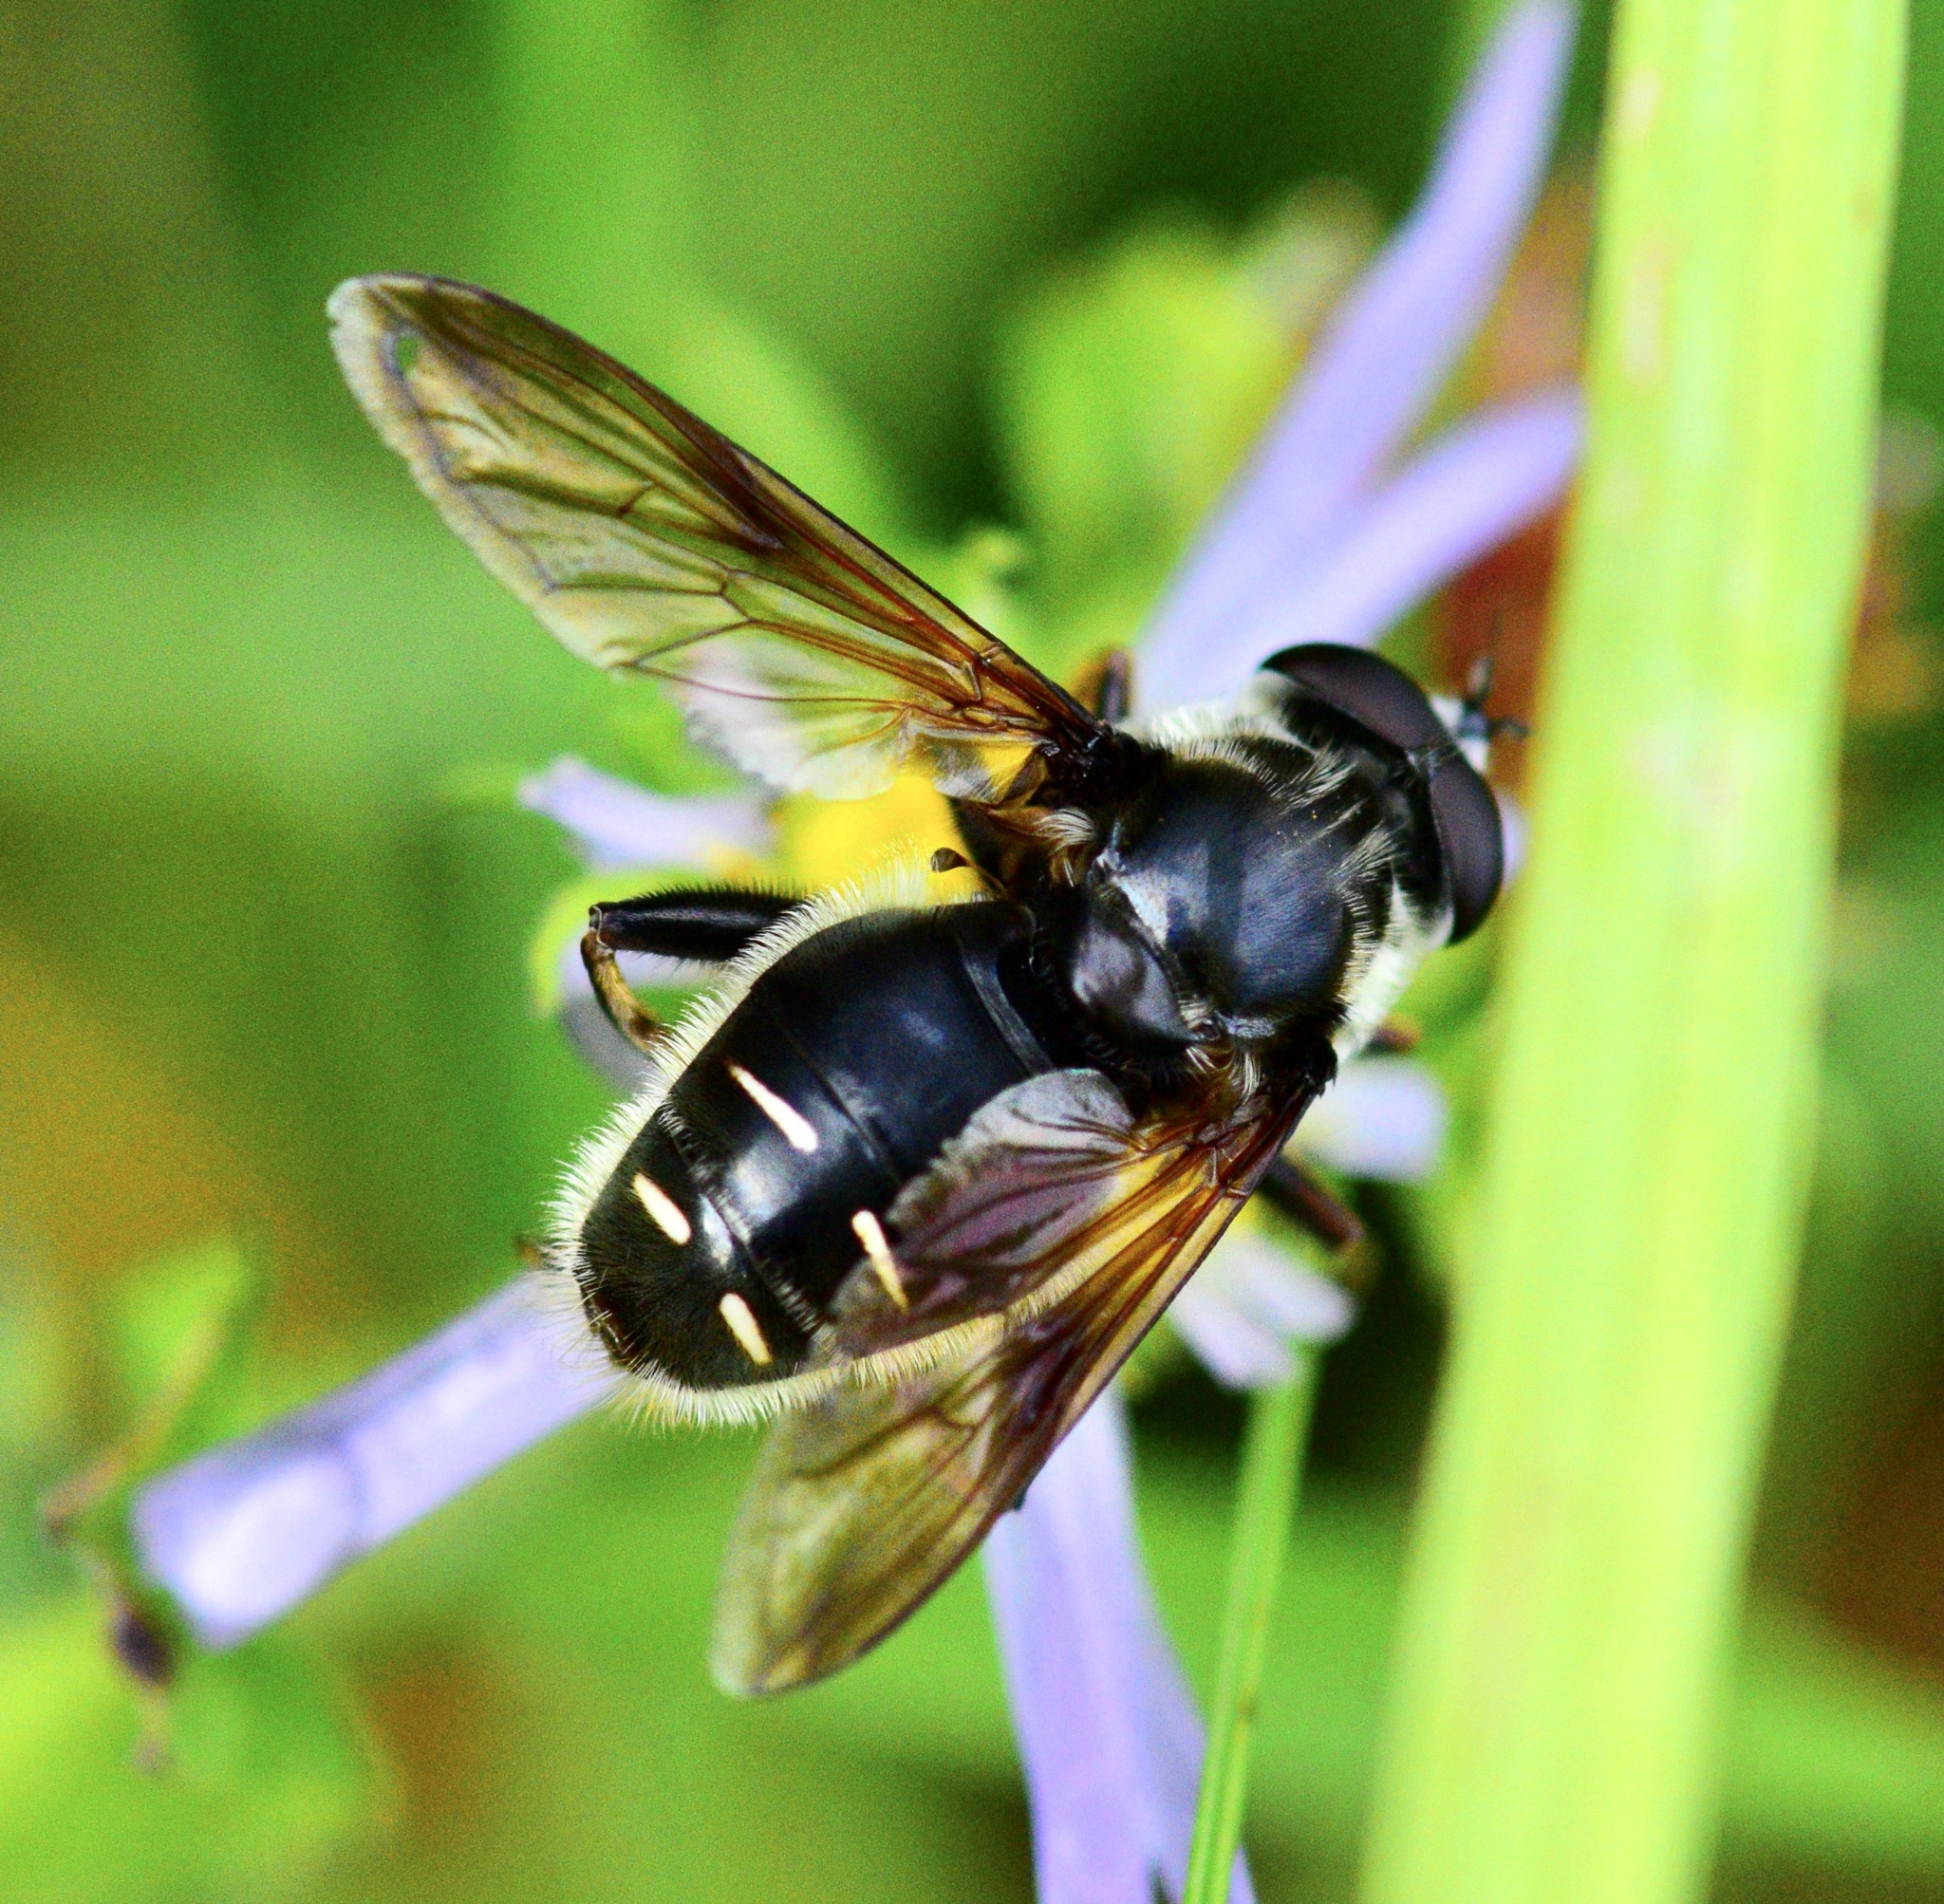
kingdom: Animalia
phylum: Arthropoda
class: Insecta
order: Diptera
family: Syrphidae
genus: Sericomyia
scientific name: Sericomyia militaris
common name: Narrow-banded pond fly
